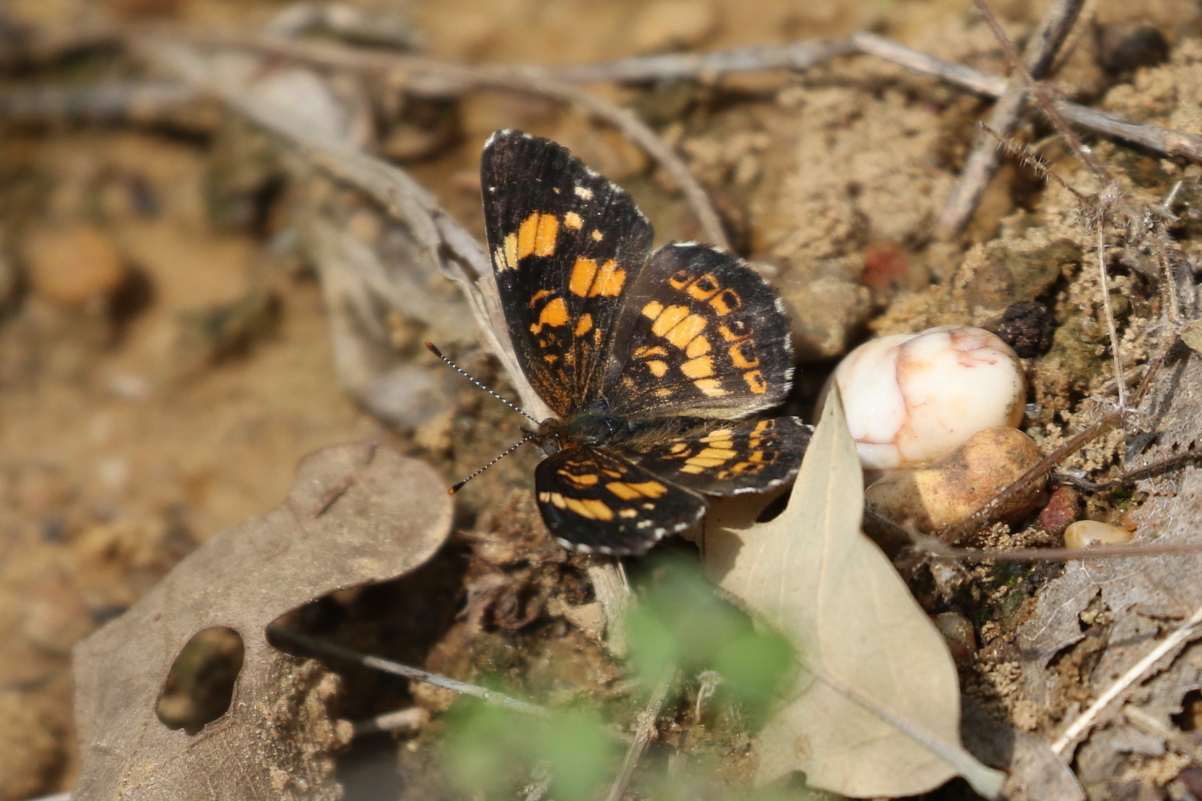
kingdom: Animalia
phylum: Arthropoda
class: Insecta
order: Lepidoptera
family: Nymphalidae
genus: Chlosyne
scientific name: Chlosyne nycteis
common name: Silvery checkerspot
